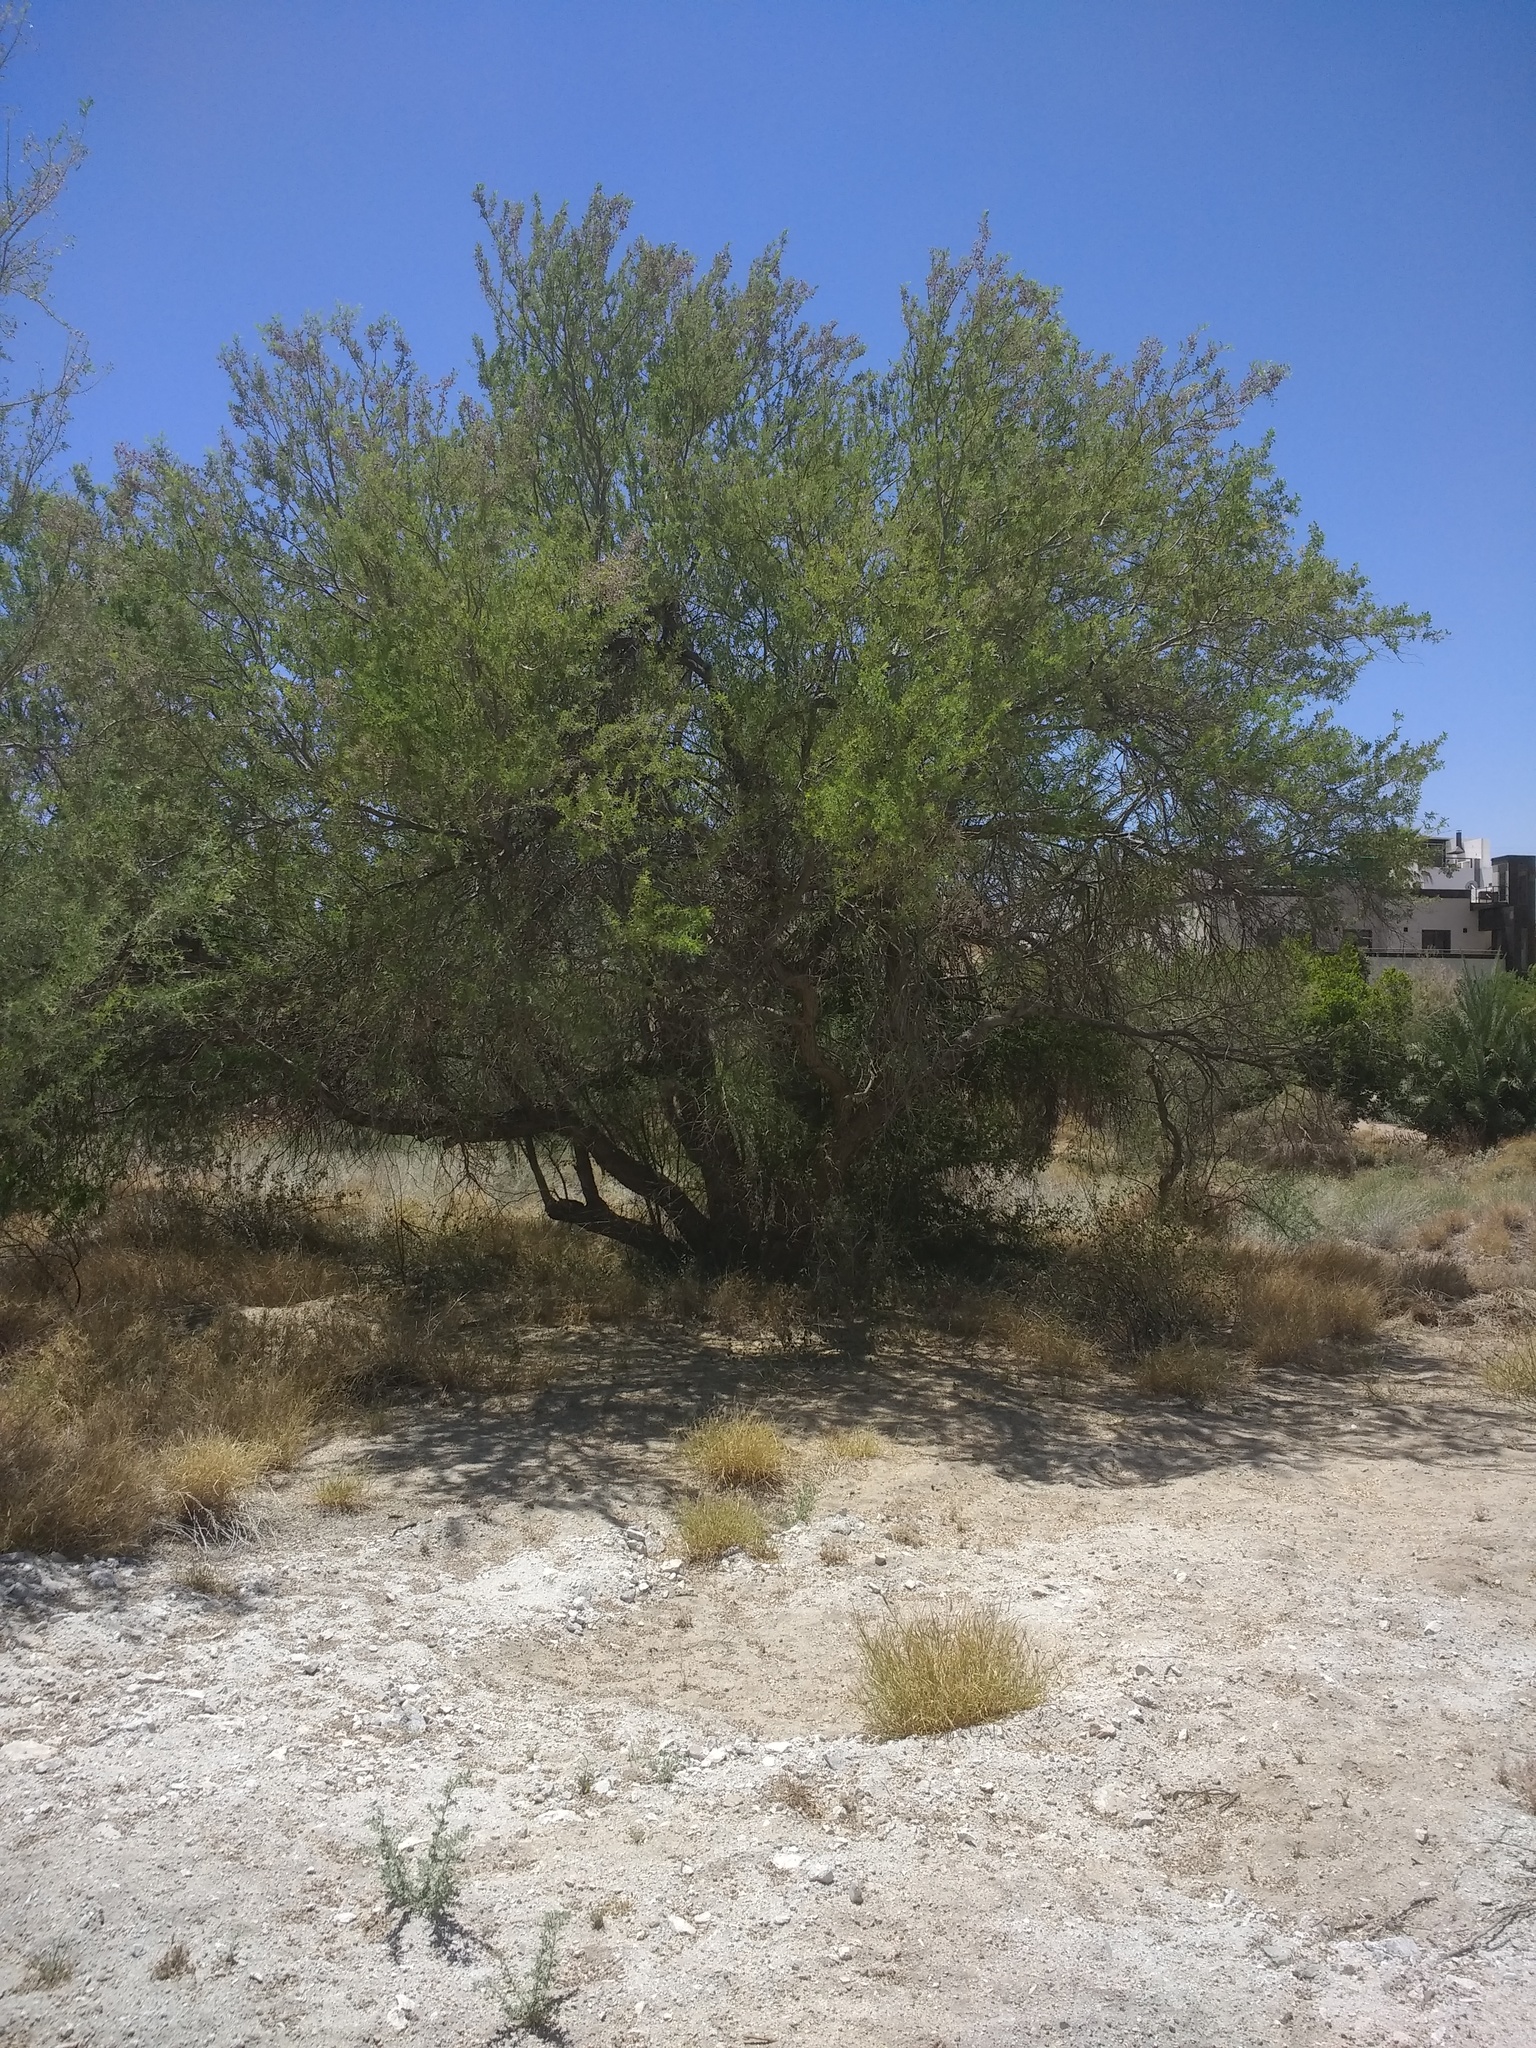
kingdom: Plantae
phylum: Tracheophyta
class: Magnoliopsida
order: Fabales
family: Fabaceae
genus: Olneya
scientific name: Olneya tesota
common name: Desert ironwood
